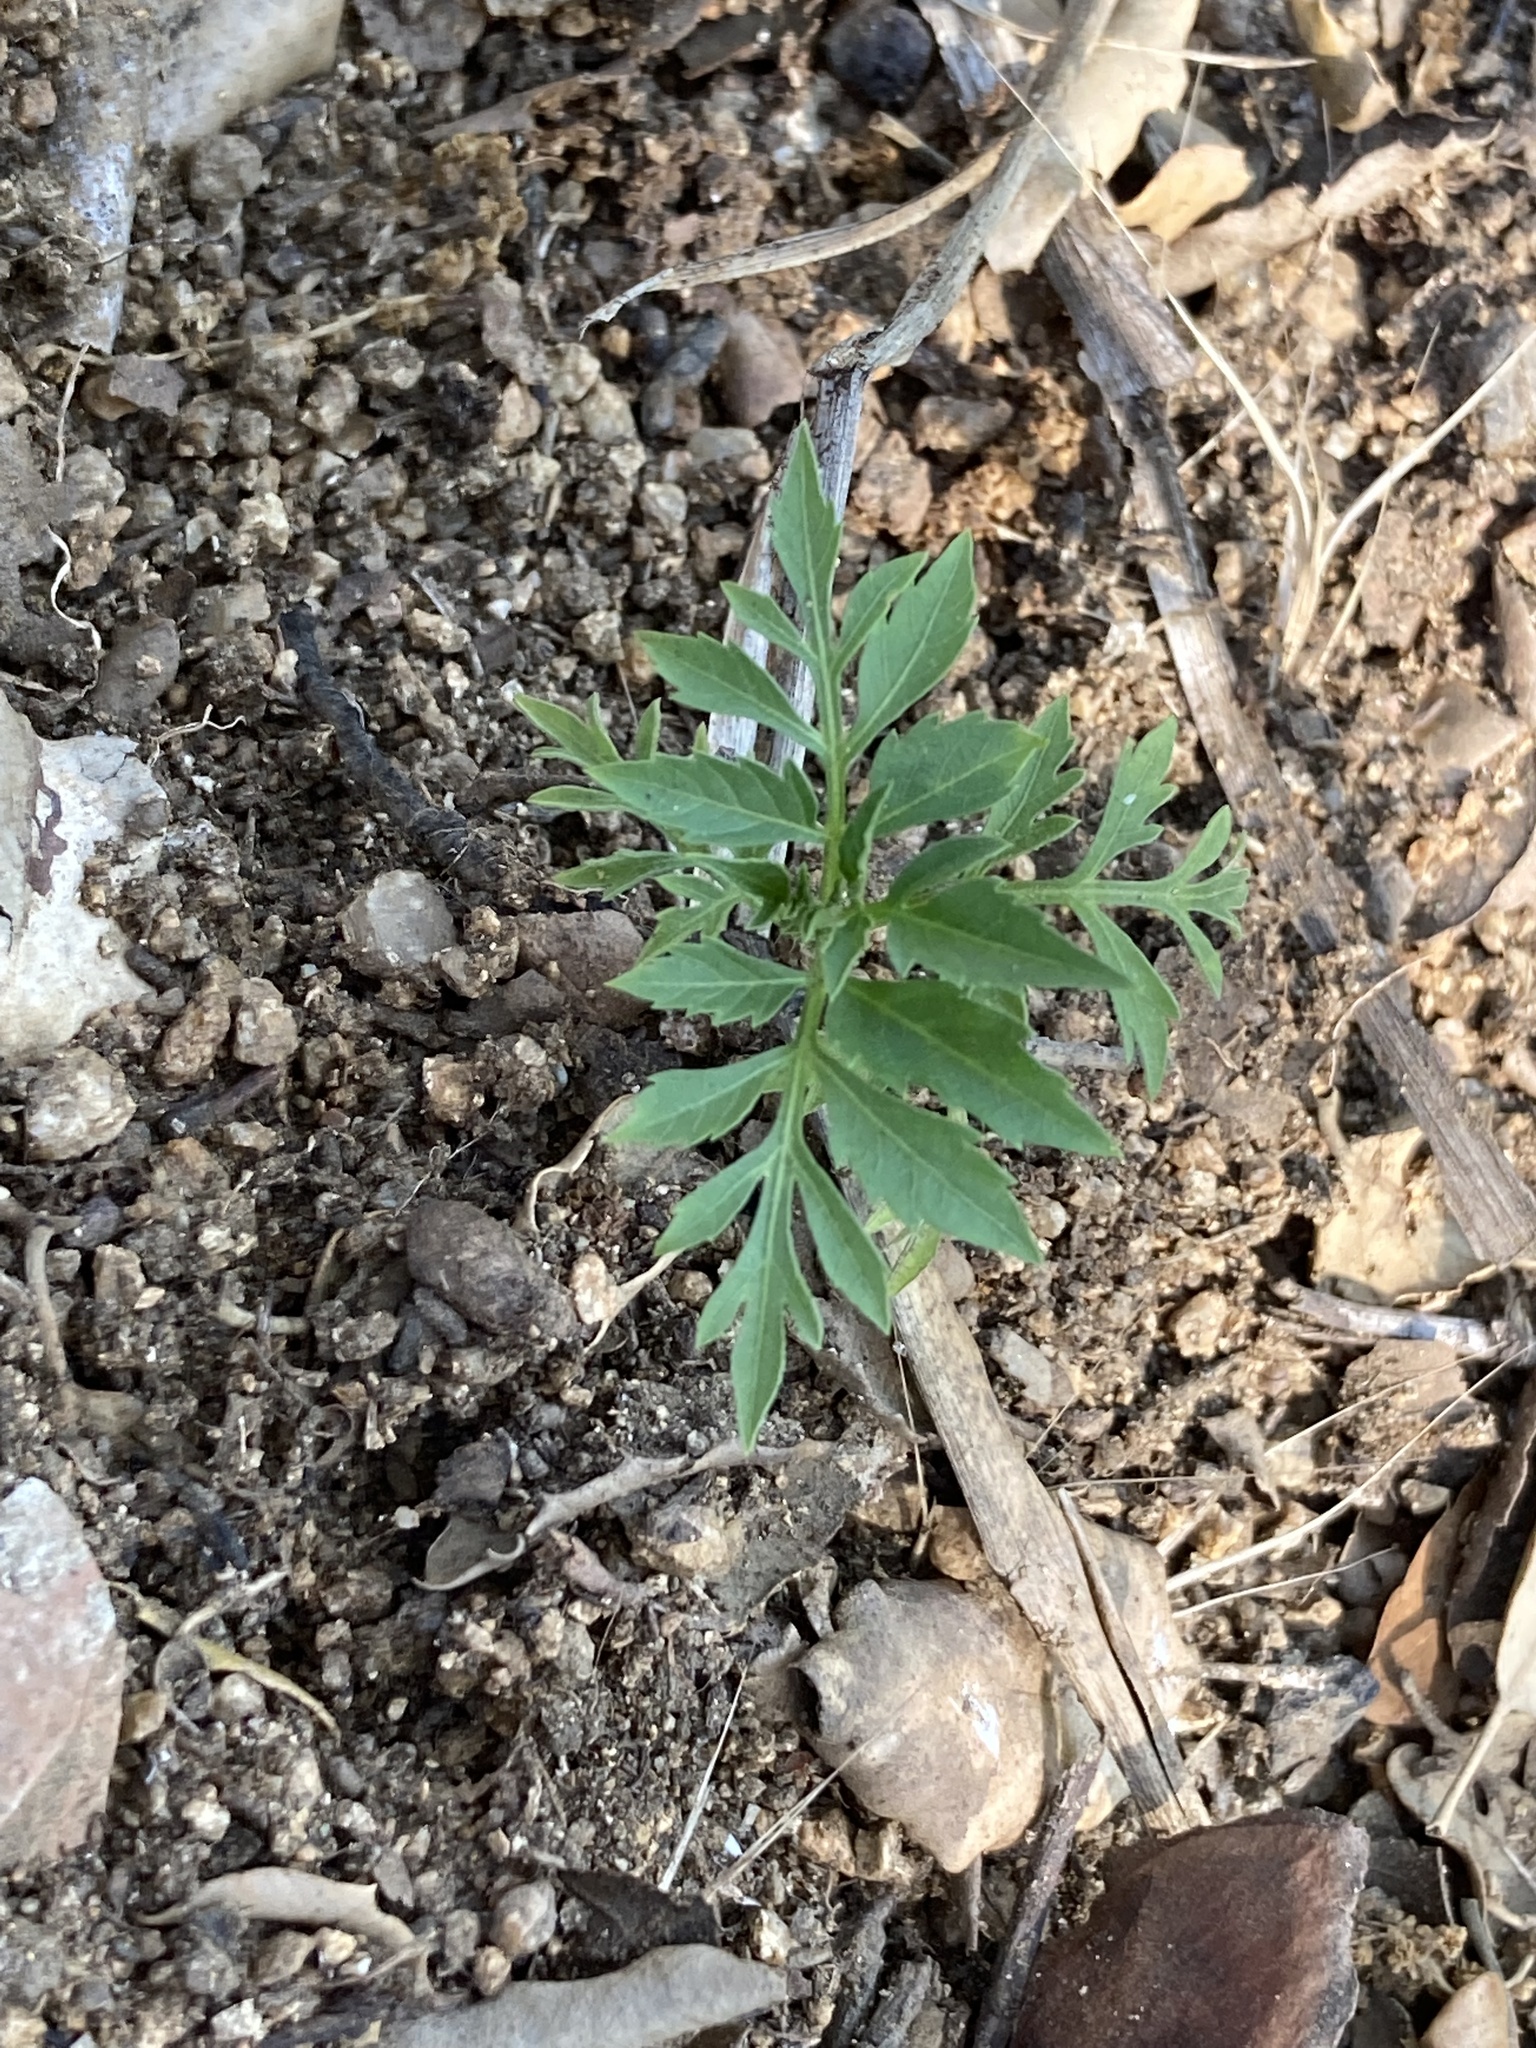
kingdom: Plantae
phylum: Tracheophyta
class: Magnoliopsida
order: Asterales
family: Asteraceae
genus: Bidens
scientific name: Bidens subalternans
